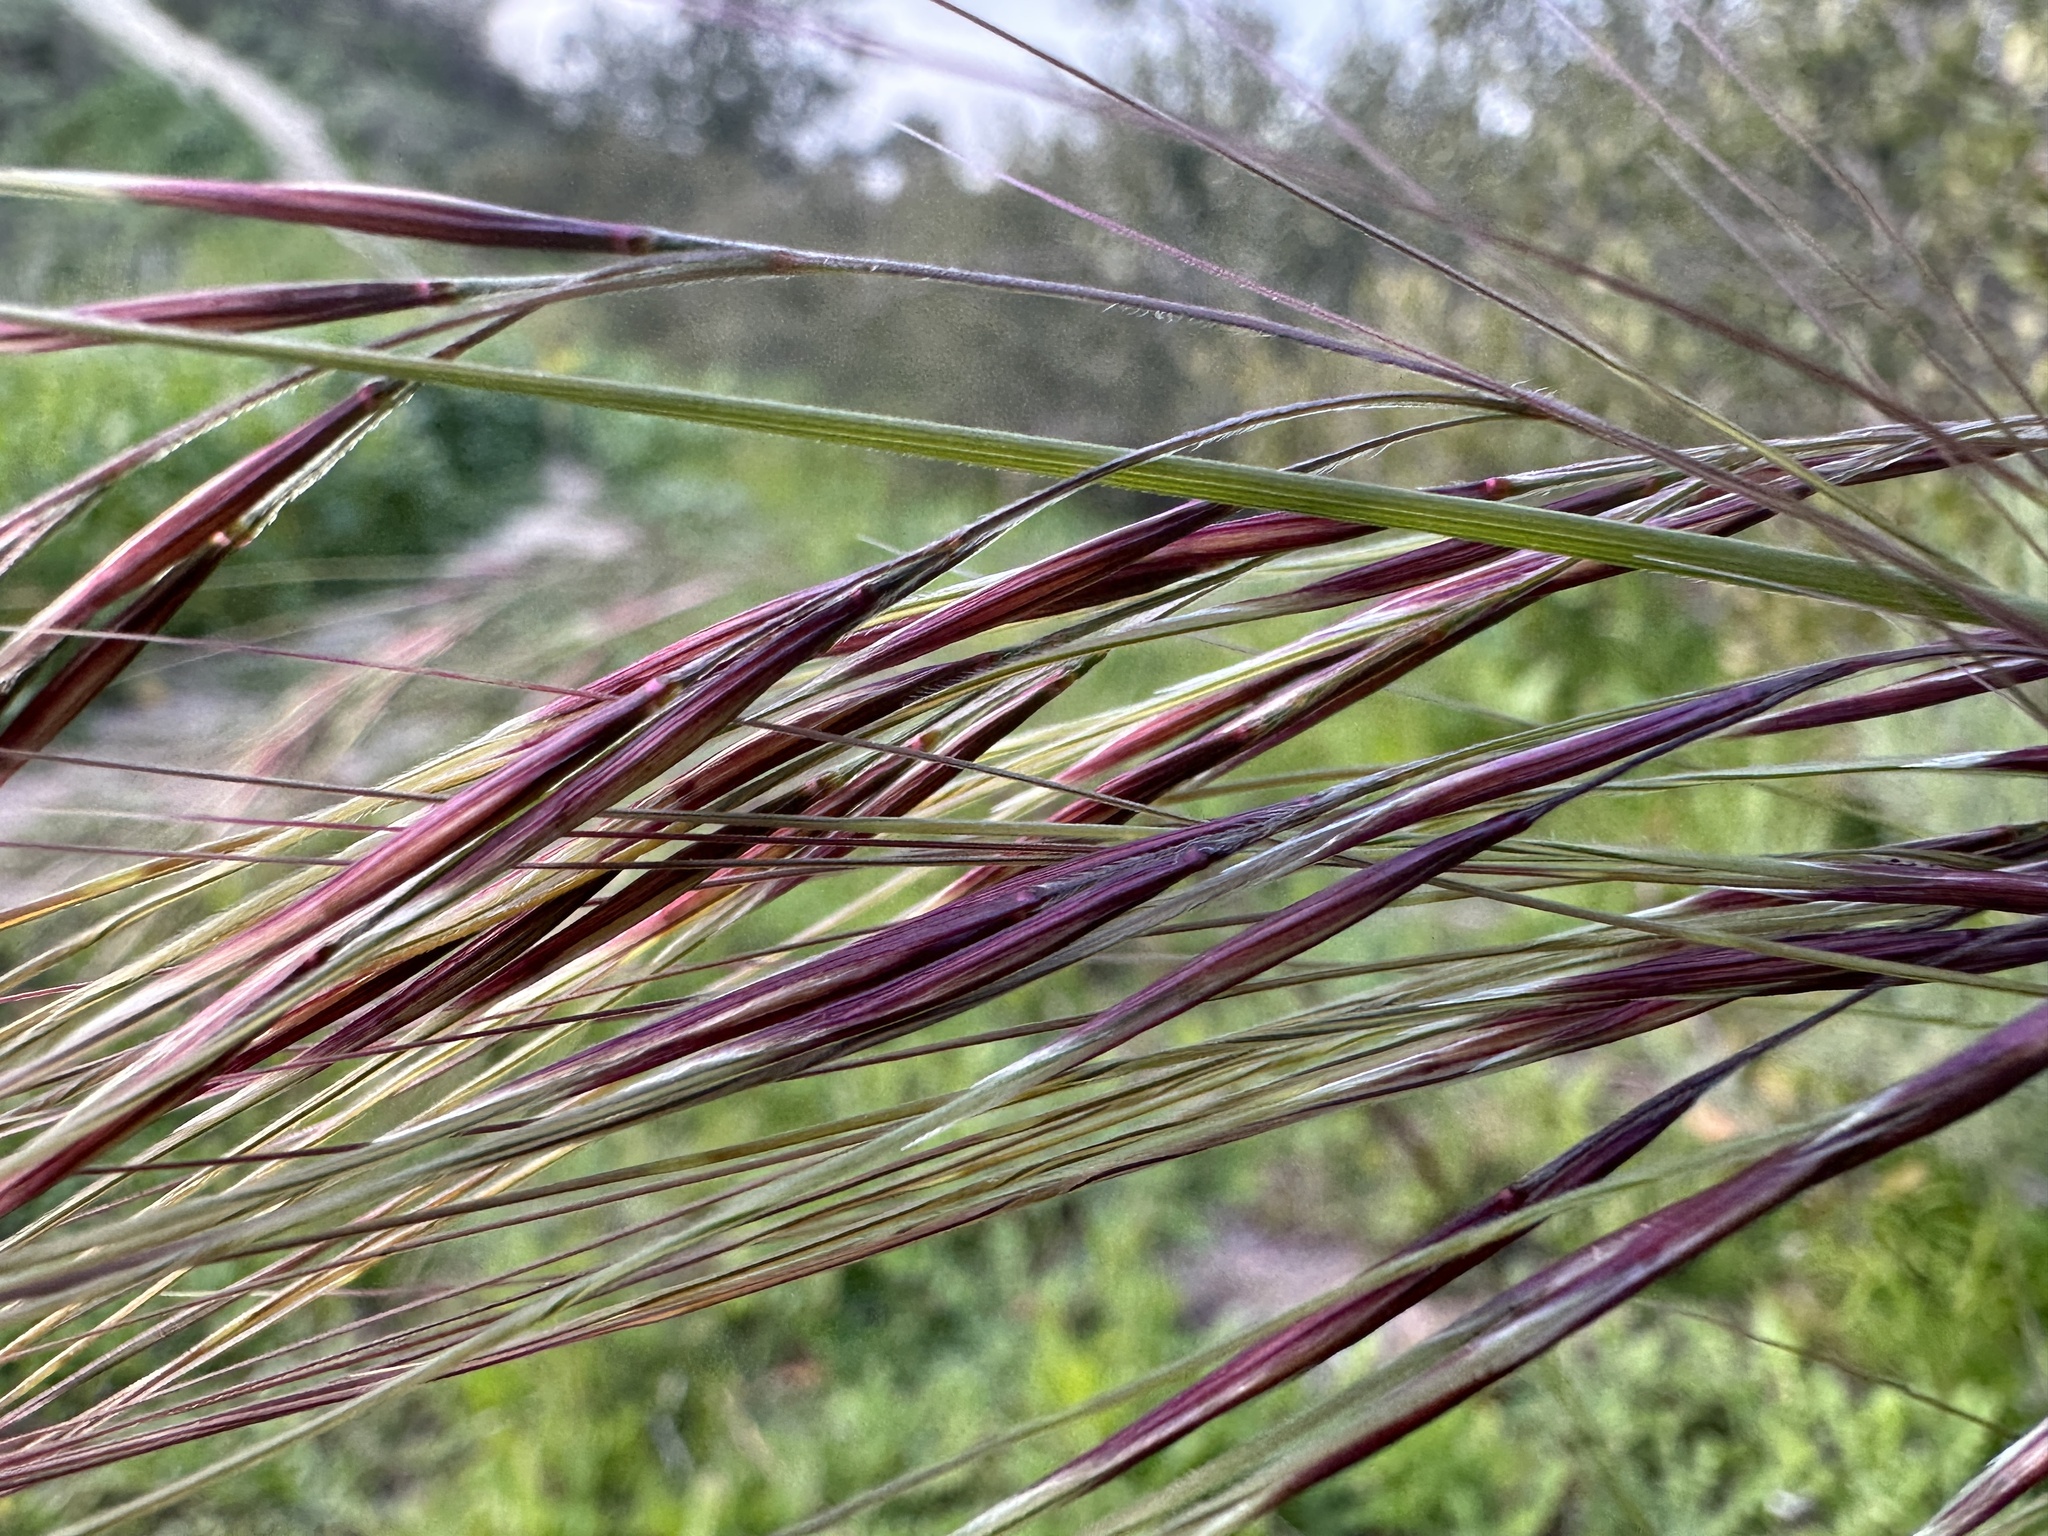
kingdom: Plantae
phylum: Tracheophyta
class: Liliopsida
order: Poales
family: Poaceae
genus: Nassella
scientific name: Nassella pulchra
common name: Purple needlegrass
